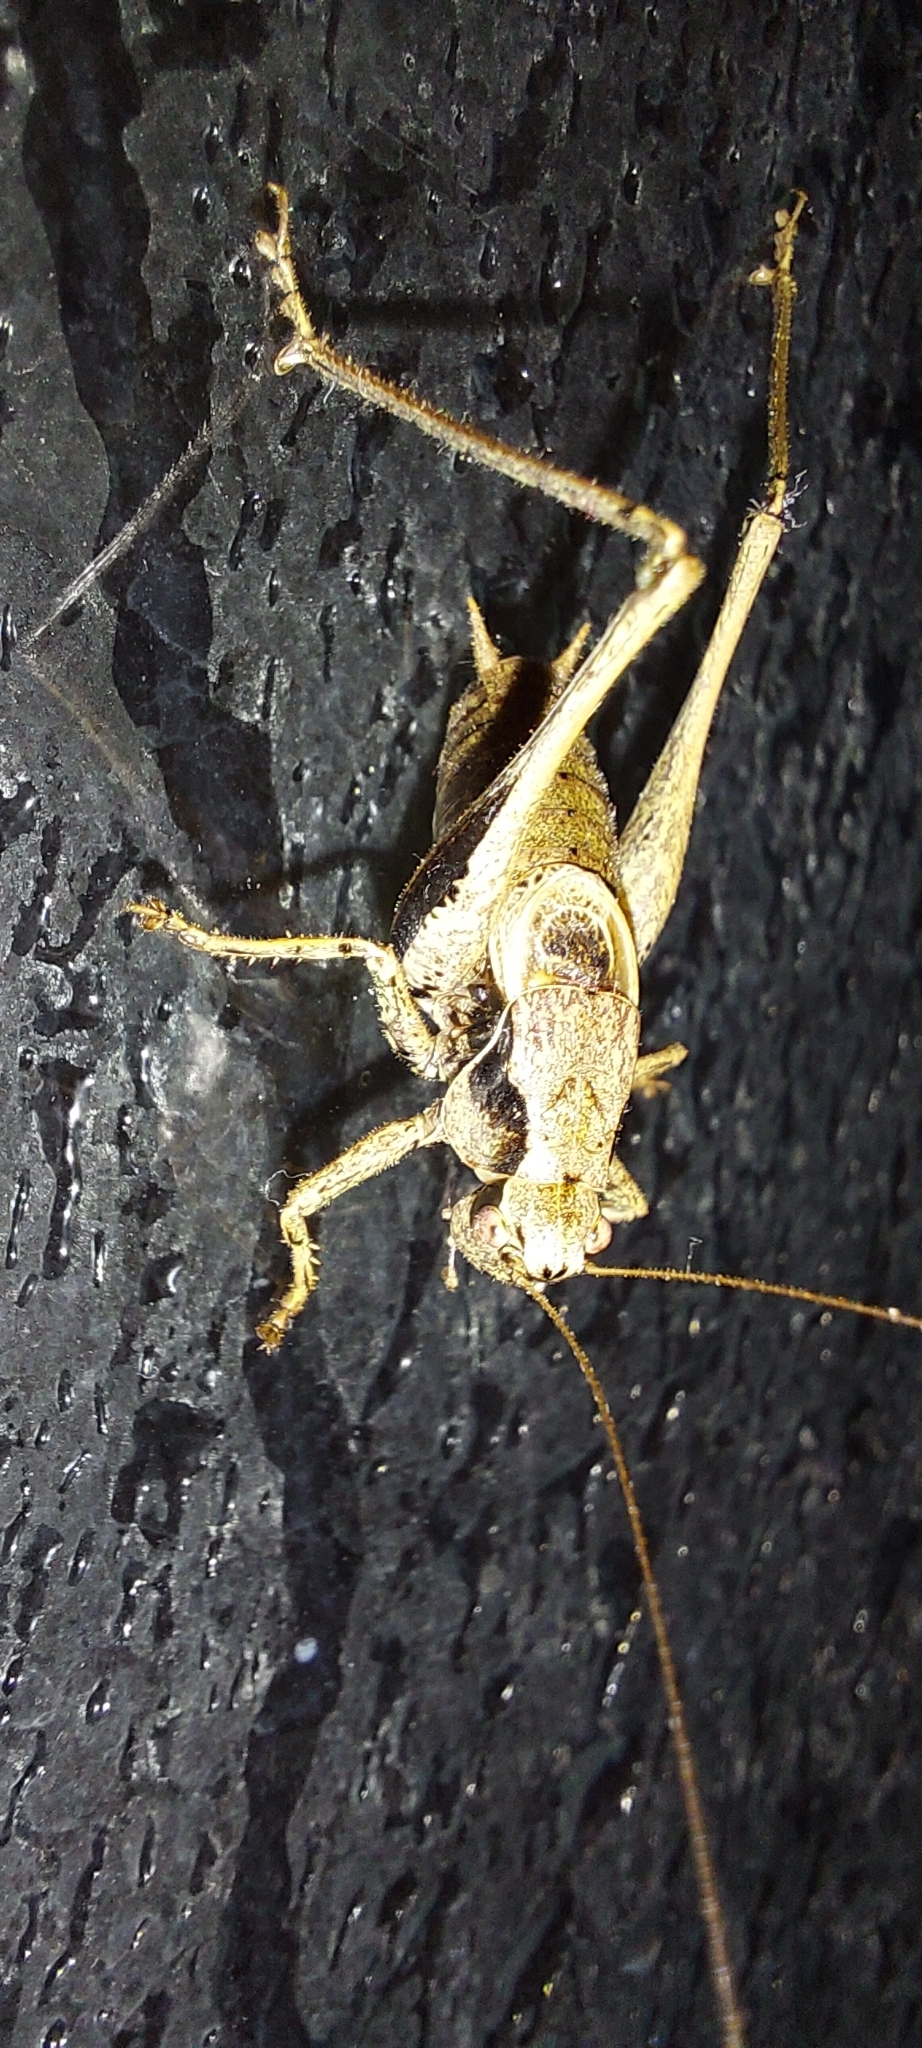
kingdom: Animalia
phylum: Arthropoda
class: Insecta
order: Orthoptera
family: Tettigoniidae
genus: Pholidoptera
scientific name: Pholidoptera griseoaptera
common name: Dark bush-cricket
